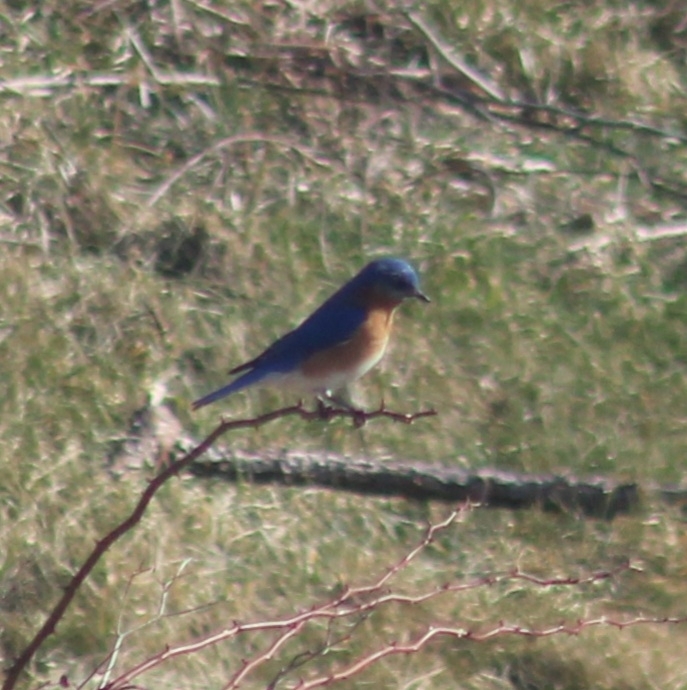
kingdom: Animalia
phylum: Chordata
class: Aves
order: Passeriformes
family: Turdidae
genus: Sialia
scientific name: Sialia sialis
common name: Eastern bluebird
